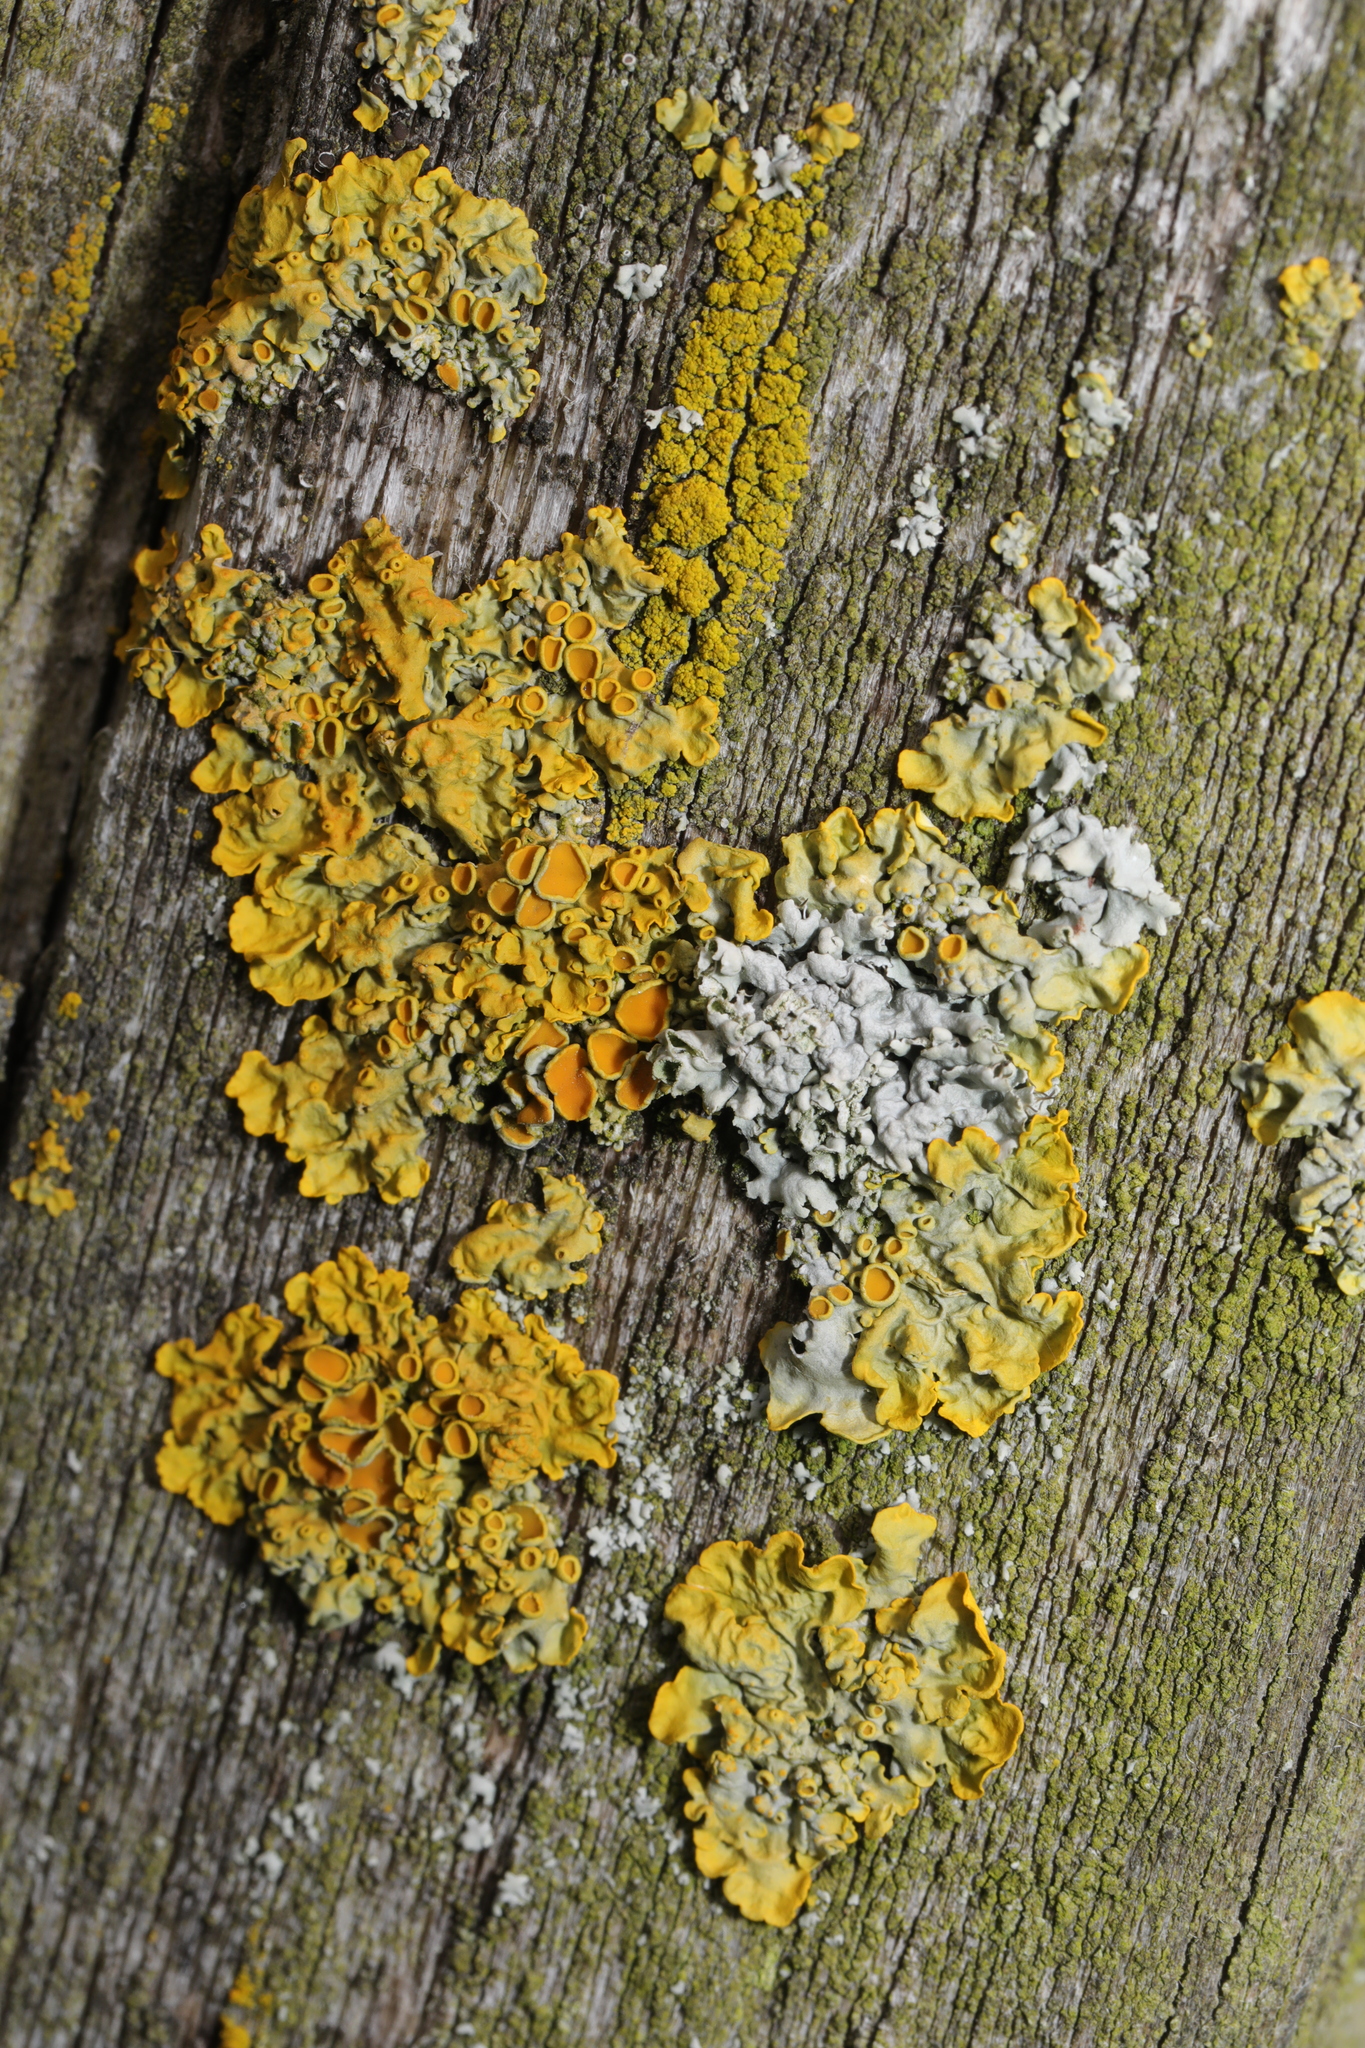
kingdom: Fungi
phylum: Ascomycota
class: Lecanoromycetes
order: Teloschistales
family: Teloschistaceae
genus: Xanthoria
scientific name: Xanthoria parietina
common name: Common orange lichen
